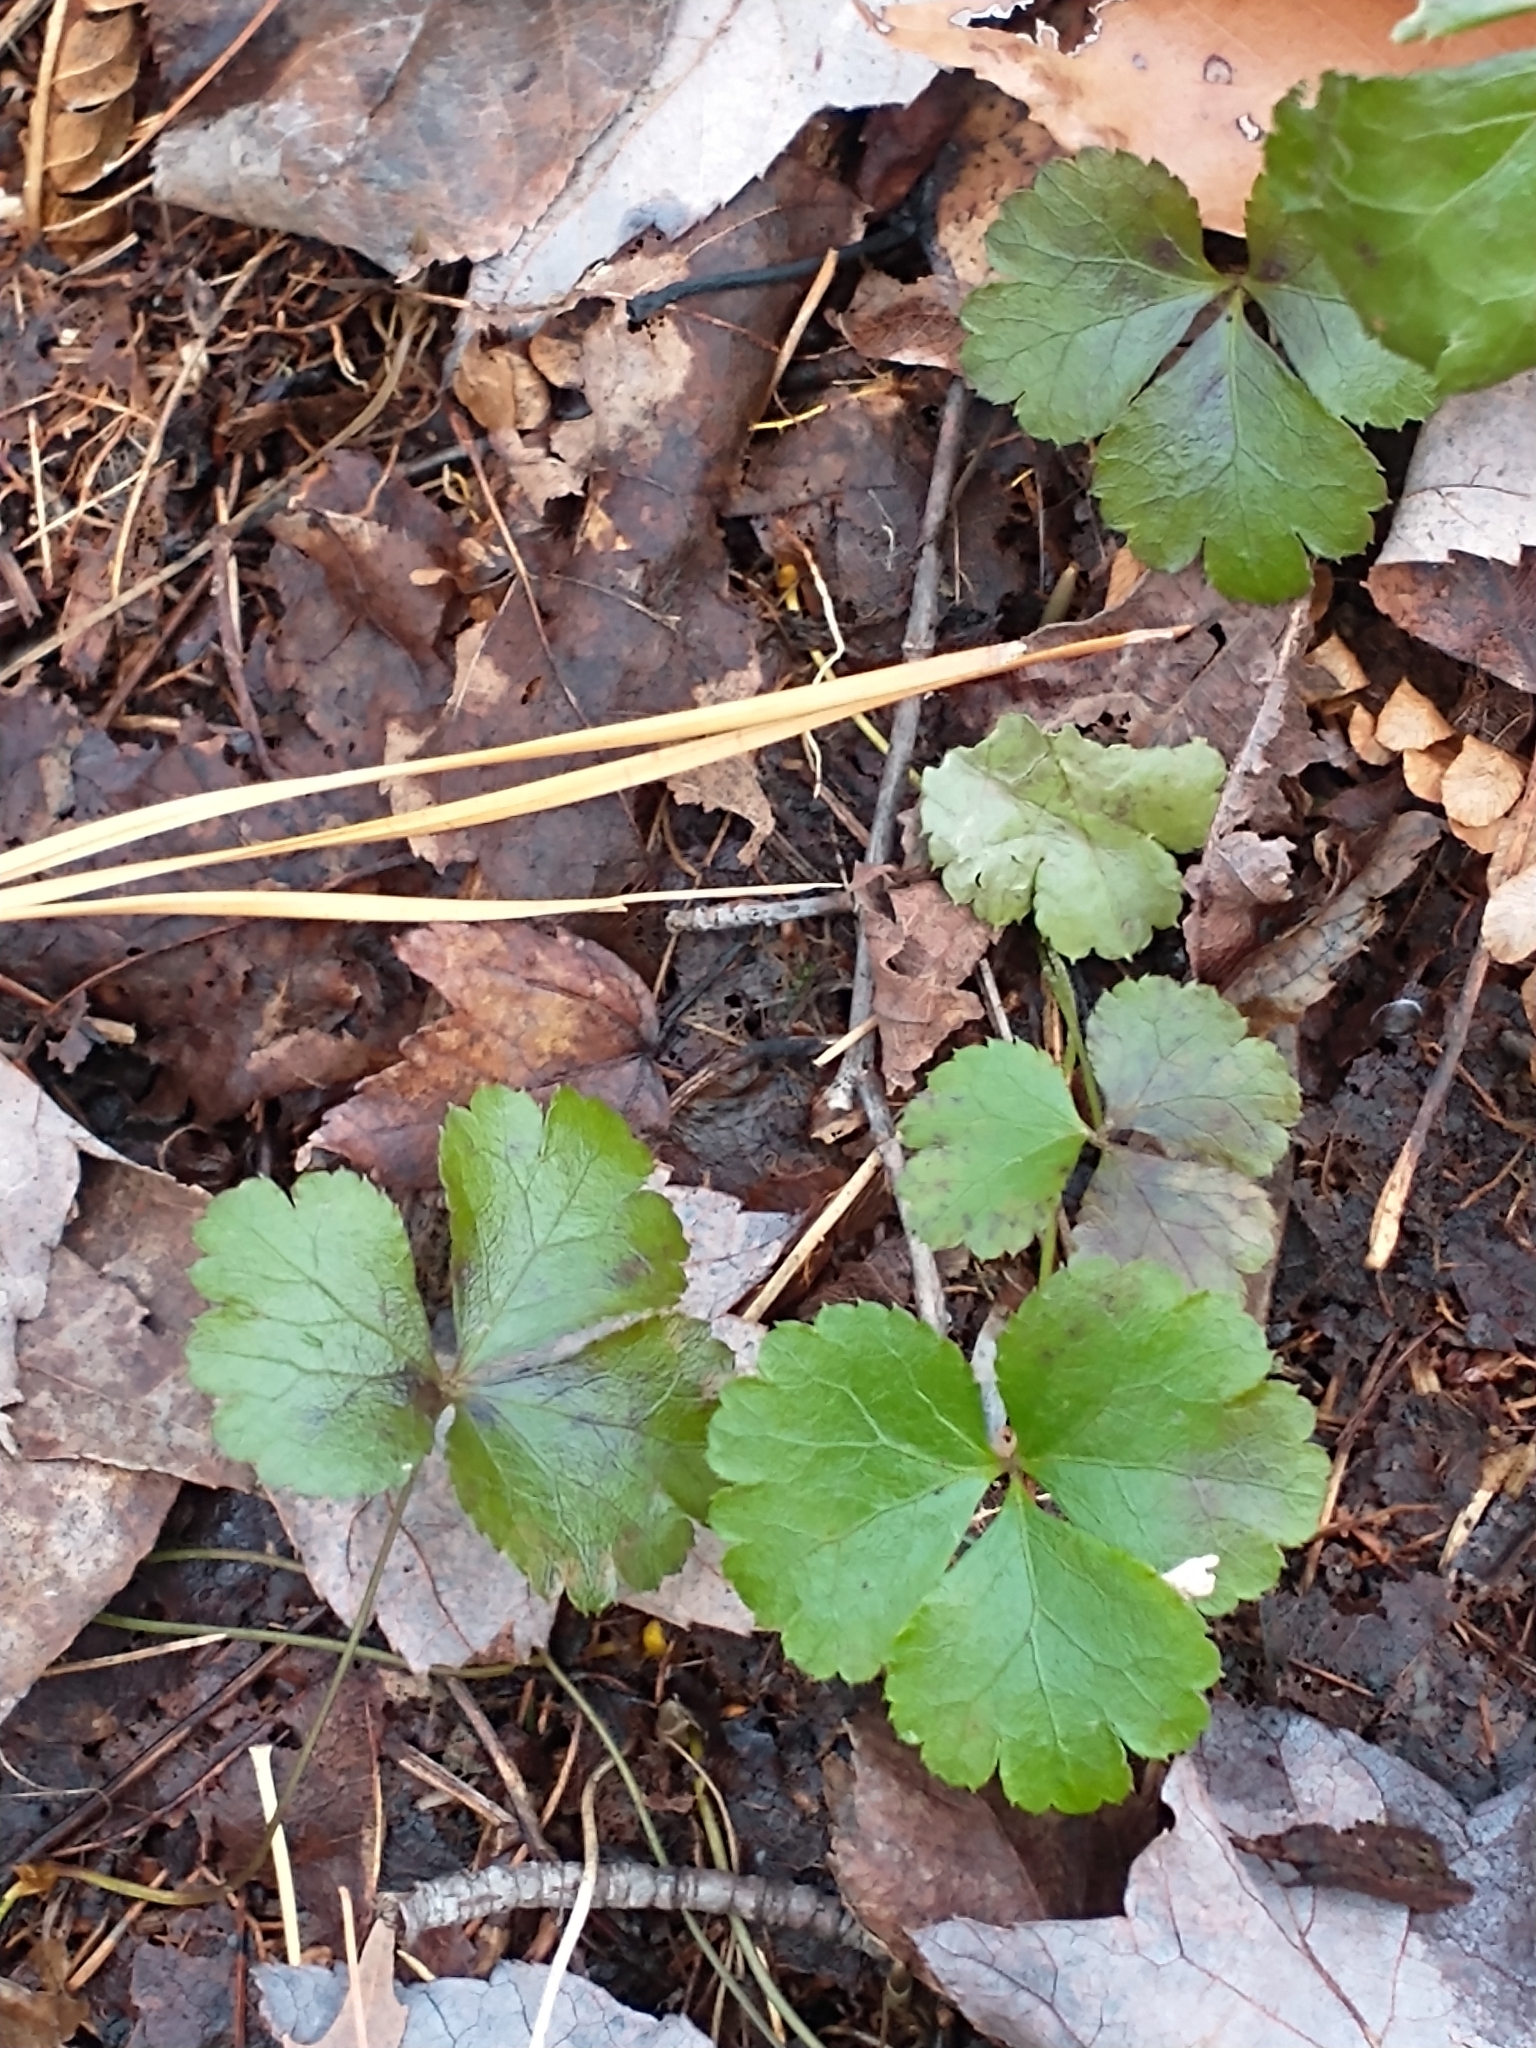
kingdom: Plantae
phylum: Tracheophyta
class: Magnoliopsida
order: Ranunculales
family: Ranunculaceae
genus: Coptis
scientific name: Coptis trifolia
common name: Canker-root
